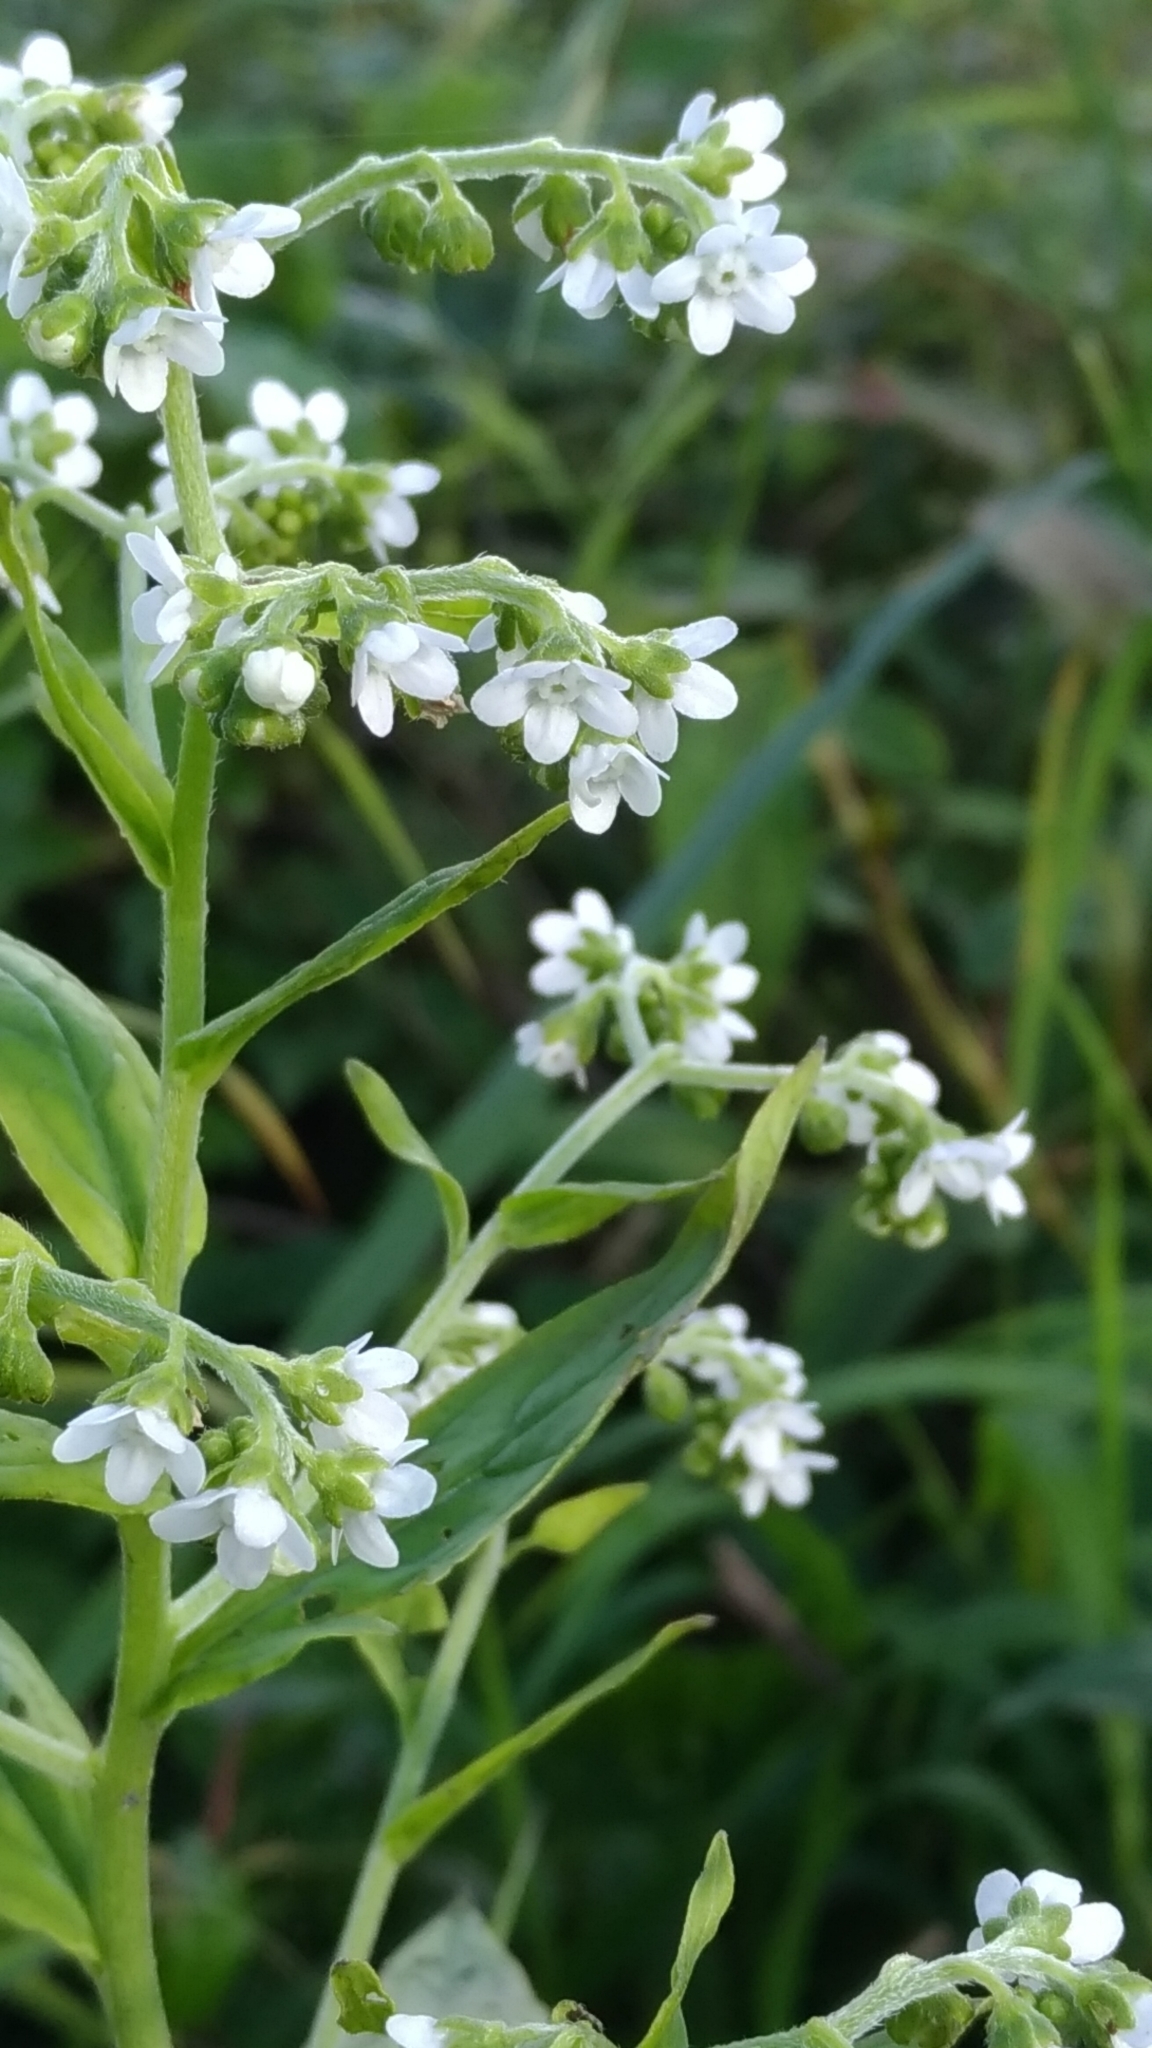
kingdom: Plantae
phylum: Tracheophyta
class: Magnoliopsida
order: Boraginales
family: Boraginaceae
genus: Cynoglossum
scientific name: Cynoglossum zeylanicum
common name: Ceylon hound's tongue
